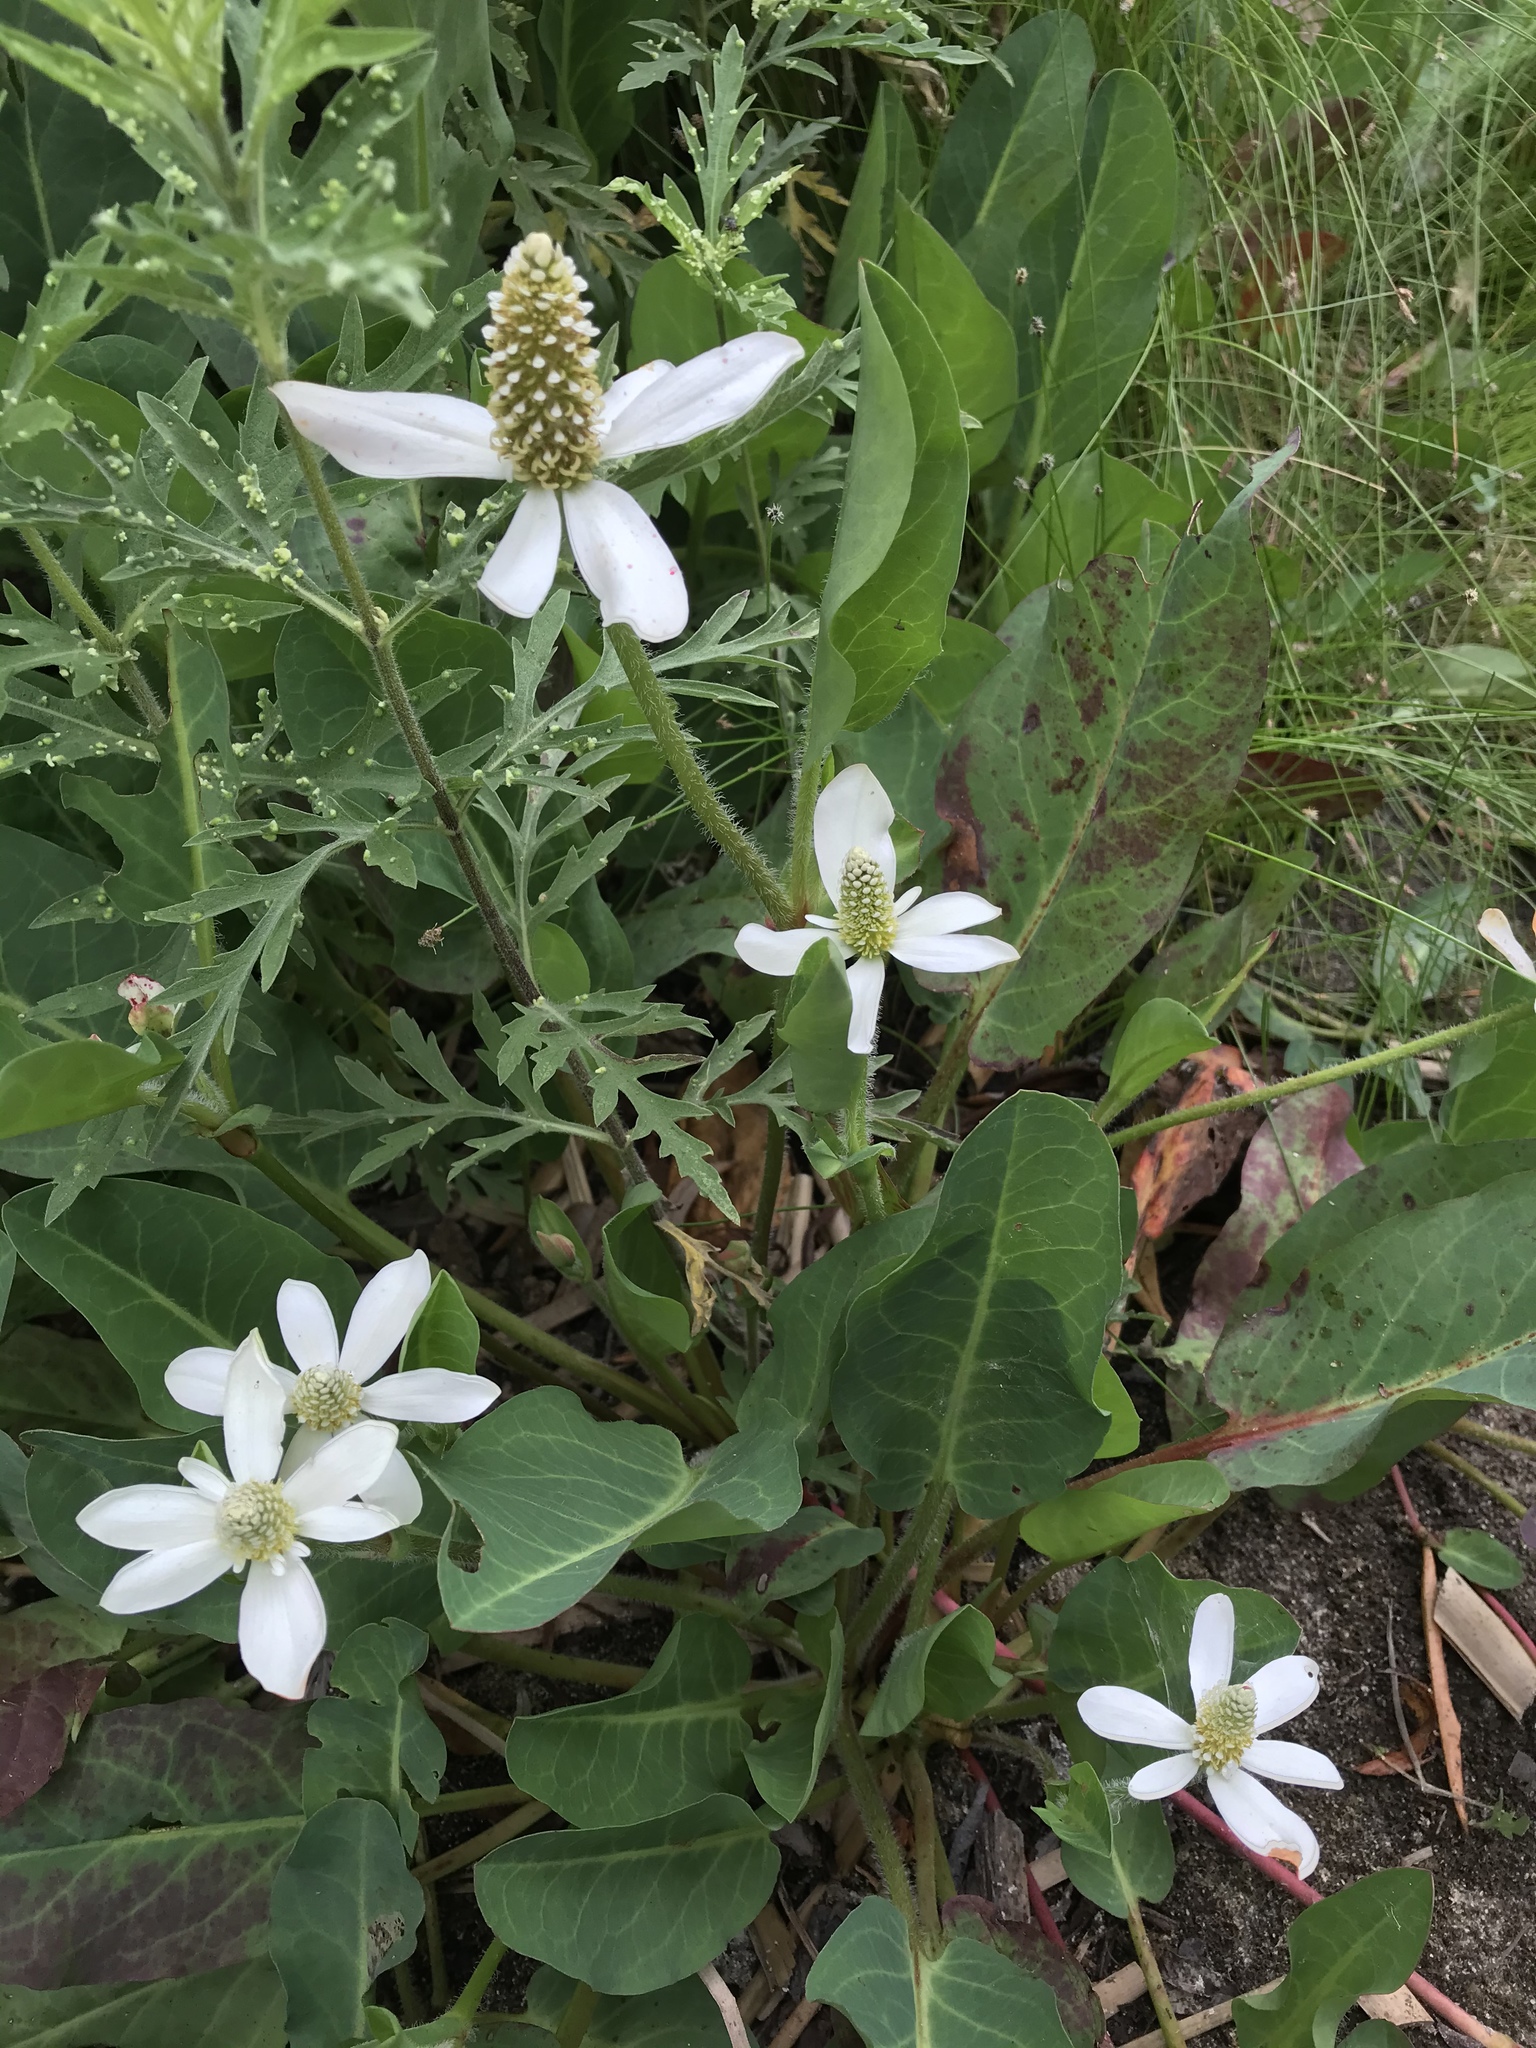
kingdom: Plantae
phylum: Tracheophyta
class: Magnoliopsida
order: Piperales
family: Saururaceae
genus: Anemopsis
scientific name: Anemopsis californica
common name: Apache-beads
